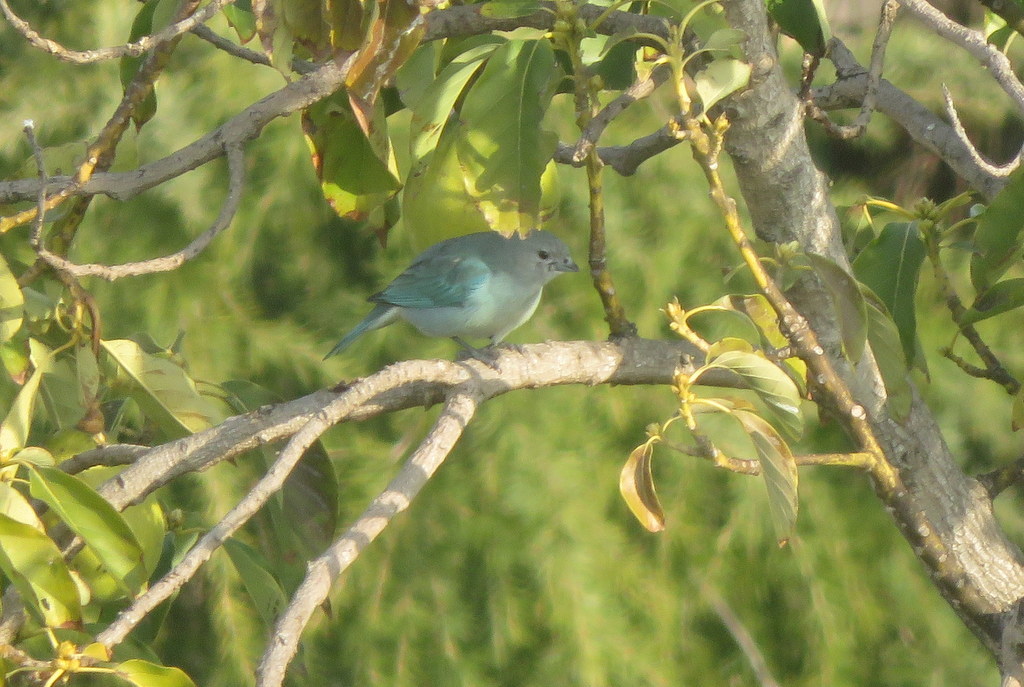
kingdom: Animalia
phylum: Chordata
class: Aves
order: Passeriformes
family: Thraupidae
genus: Thraupis
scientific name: Thraupis sayaca
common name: Sayaca tanager
